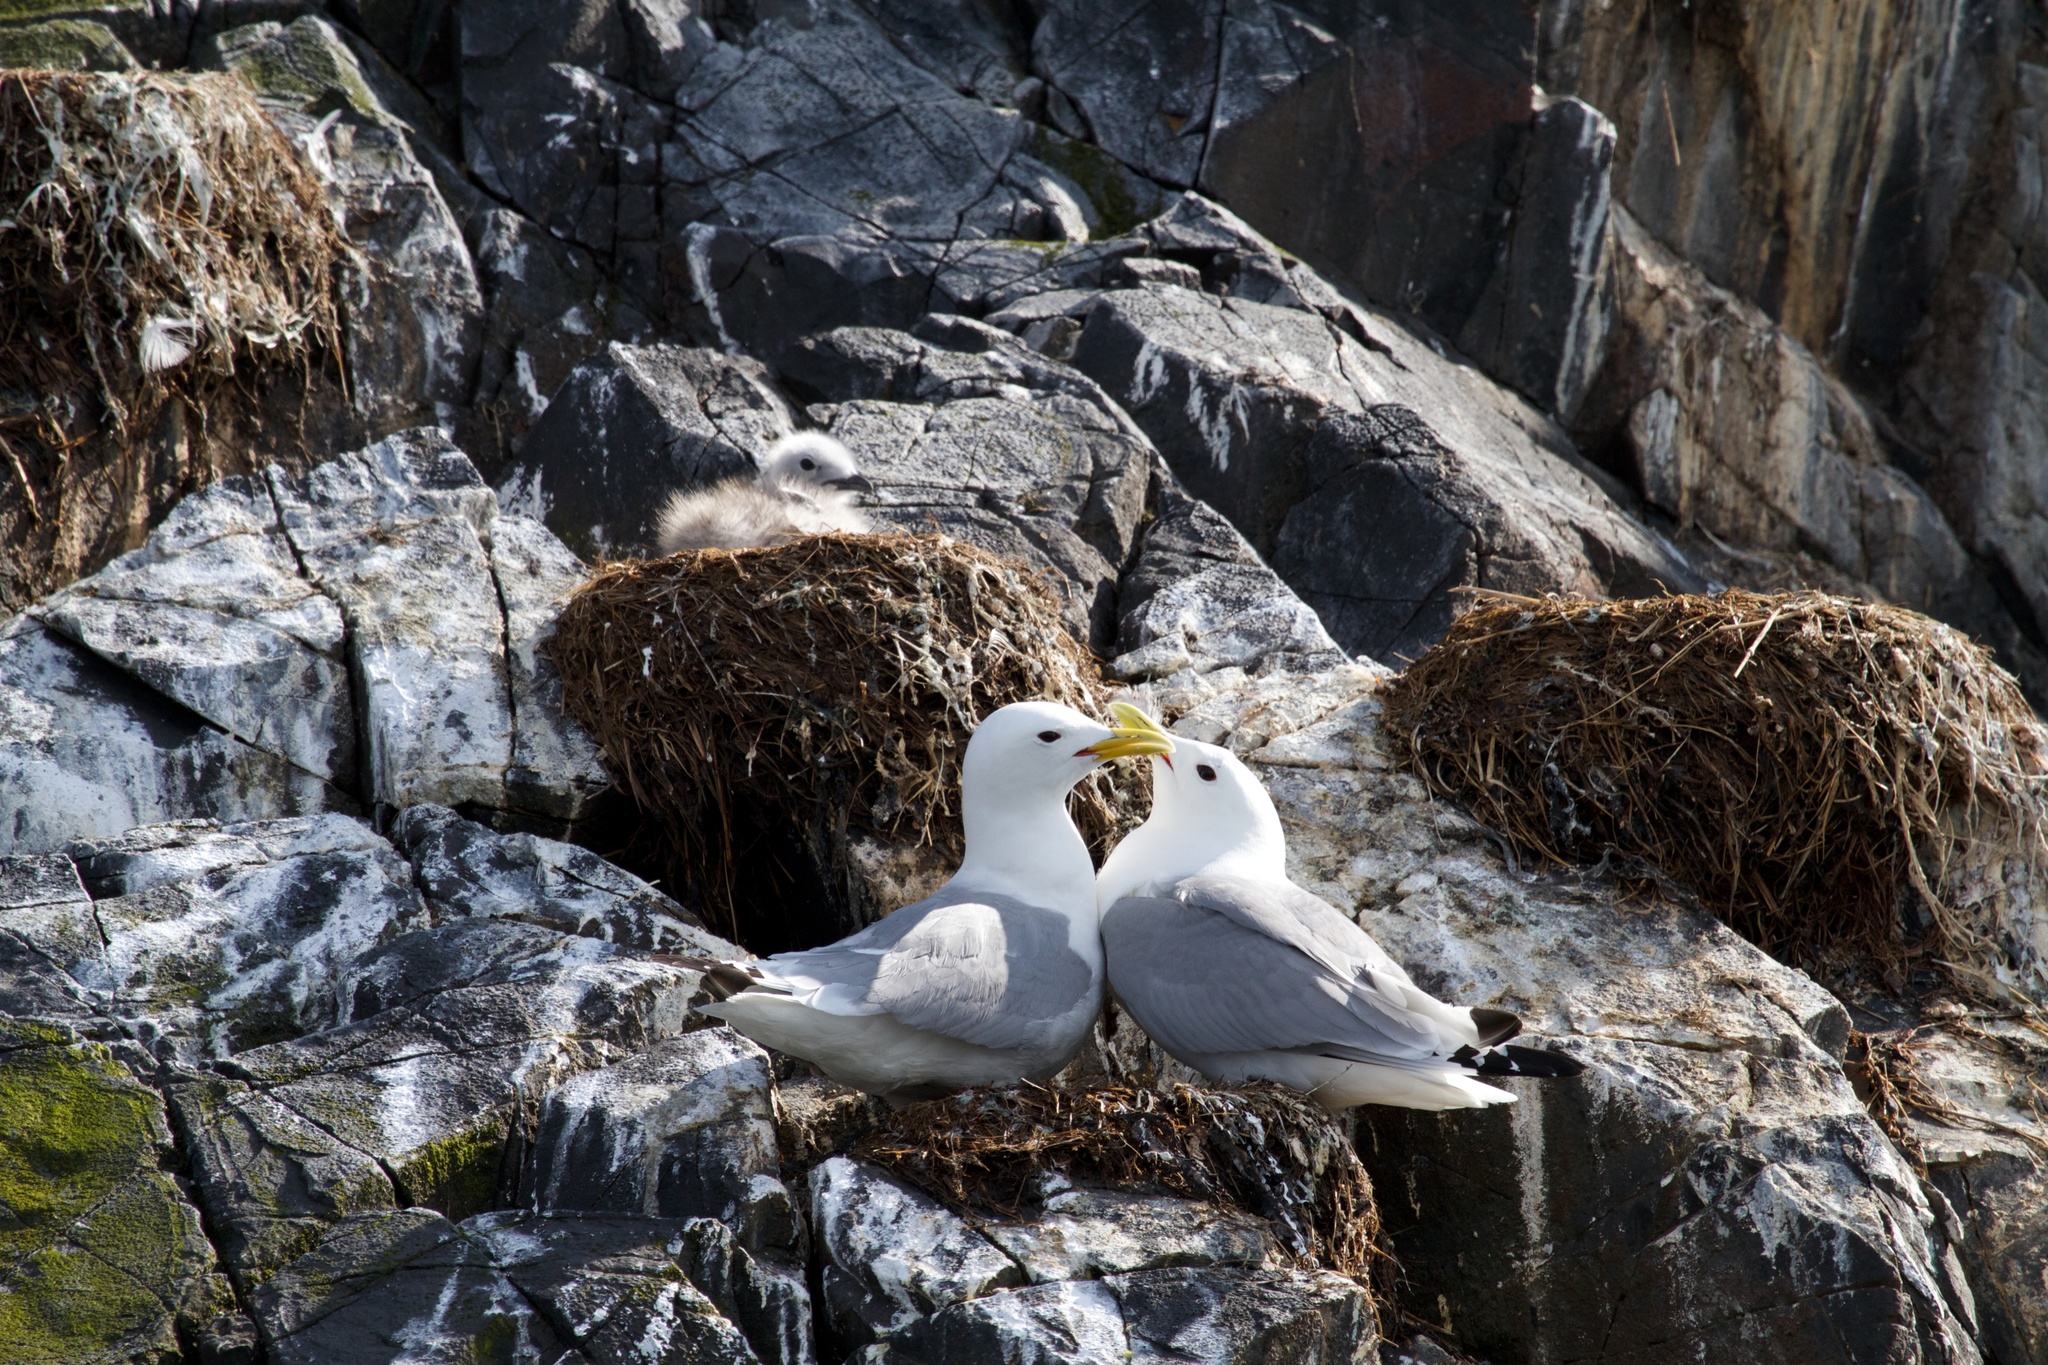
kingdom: Animalia
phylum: Chordata
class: Aves
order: Charadriiformes
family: Laridae
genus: Rissa
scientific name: Rissa tridactyla
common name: Black-legged kittiwake
